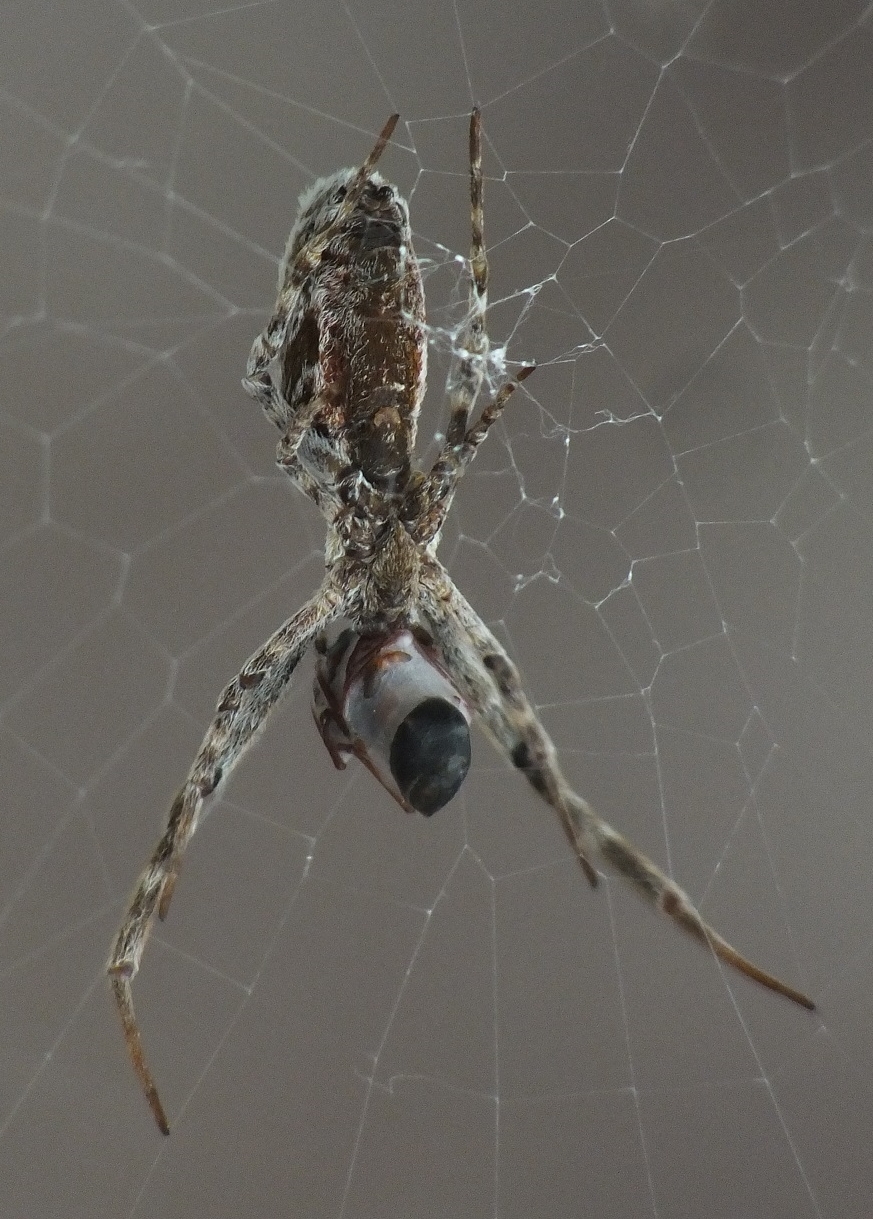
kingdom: Animalia
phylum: Arthropoda
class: Arachnida
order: Araneae
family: Uloboridae
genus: Uloborus
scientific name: Uloborus walckenaerius
